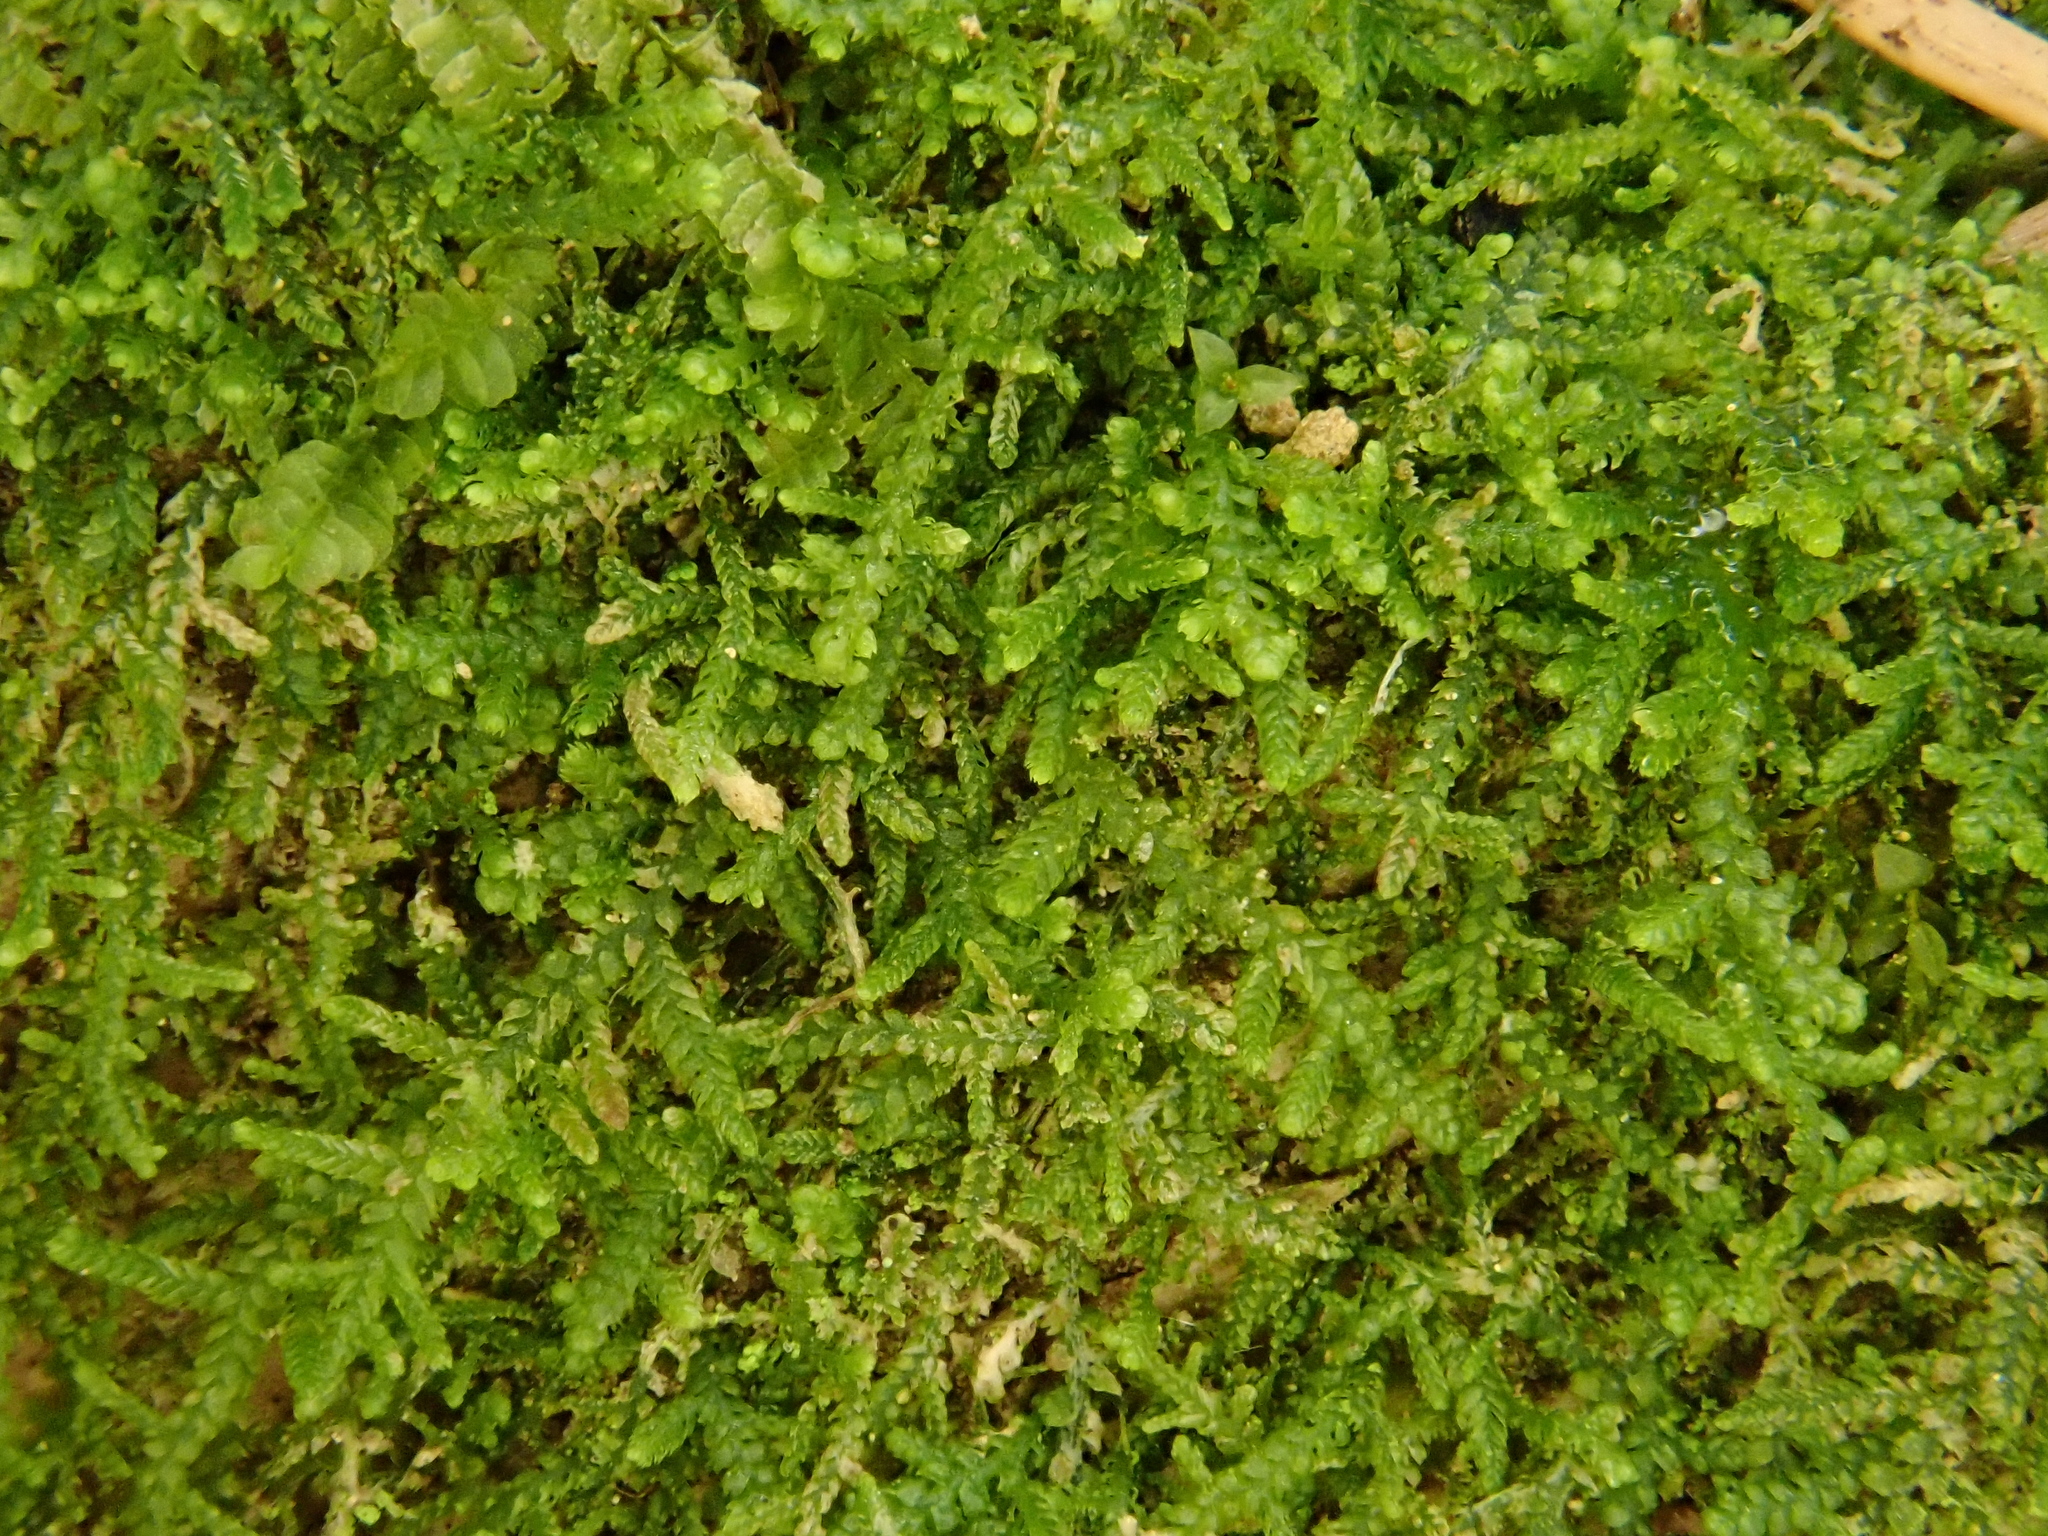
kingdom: Plantae
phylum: Marchantiophyta
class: Jungermanniopsida
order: Jungermanniales
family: Lepidoziaceae
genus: Lepidozia
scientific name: Lepidozia reptans
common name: Creeping fingerwort
